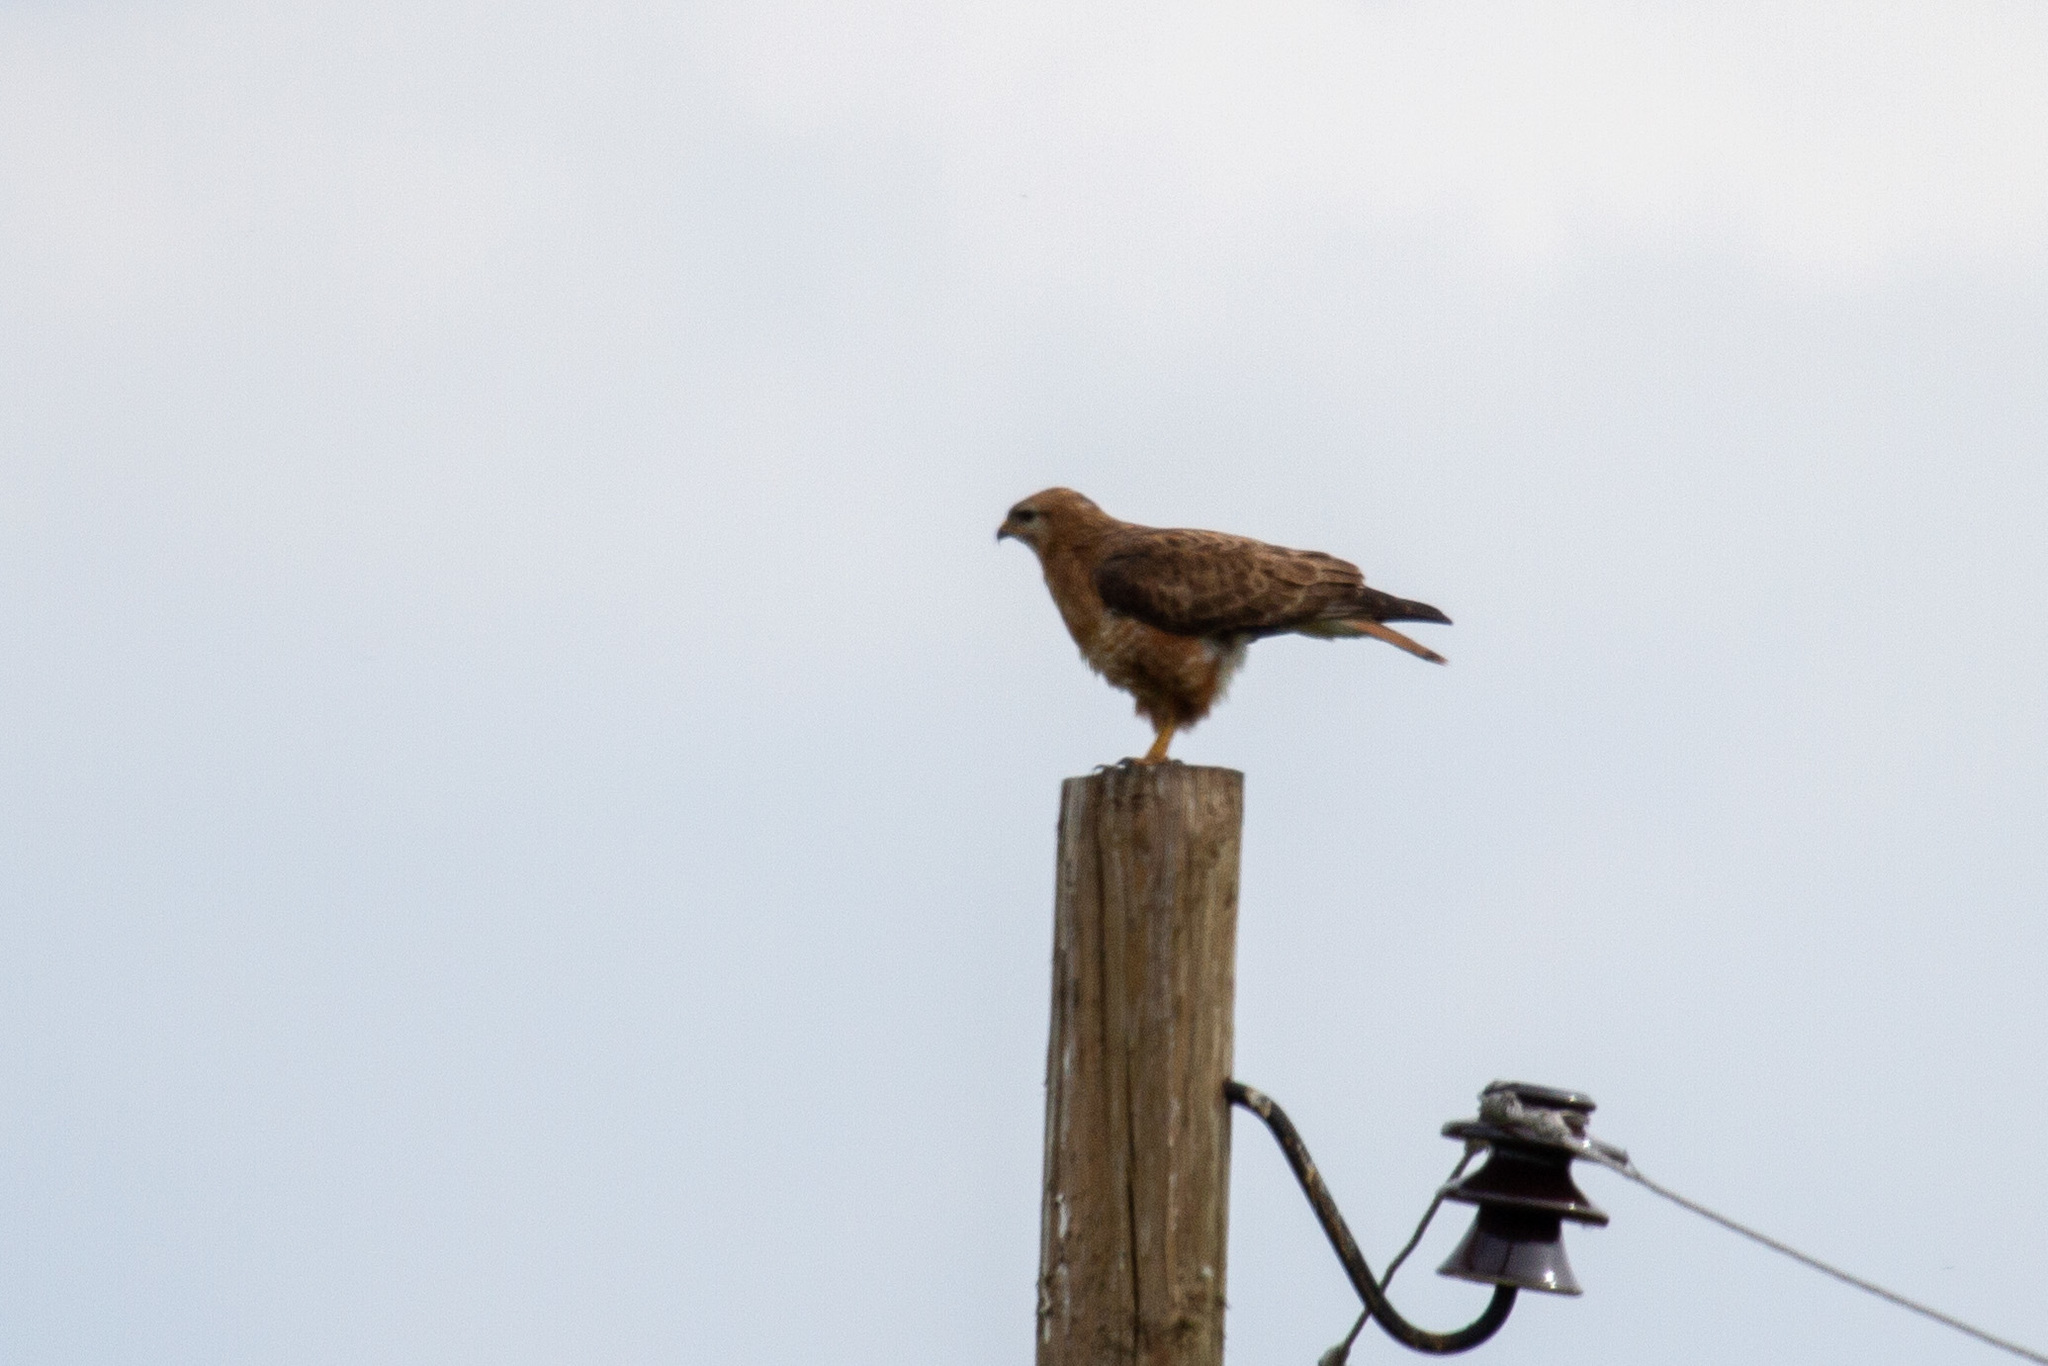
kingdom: Animalia
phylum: Chordata
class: Aves
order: Accipitriformes
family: Accipitridae
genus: Buteo
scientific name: Buteo buteo
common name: Common buzzard
